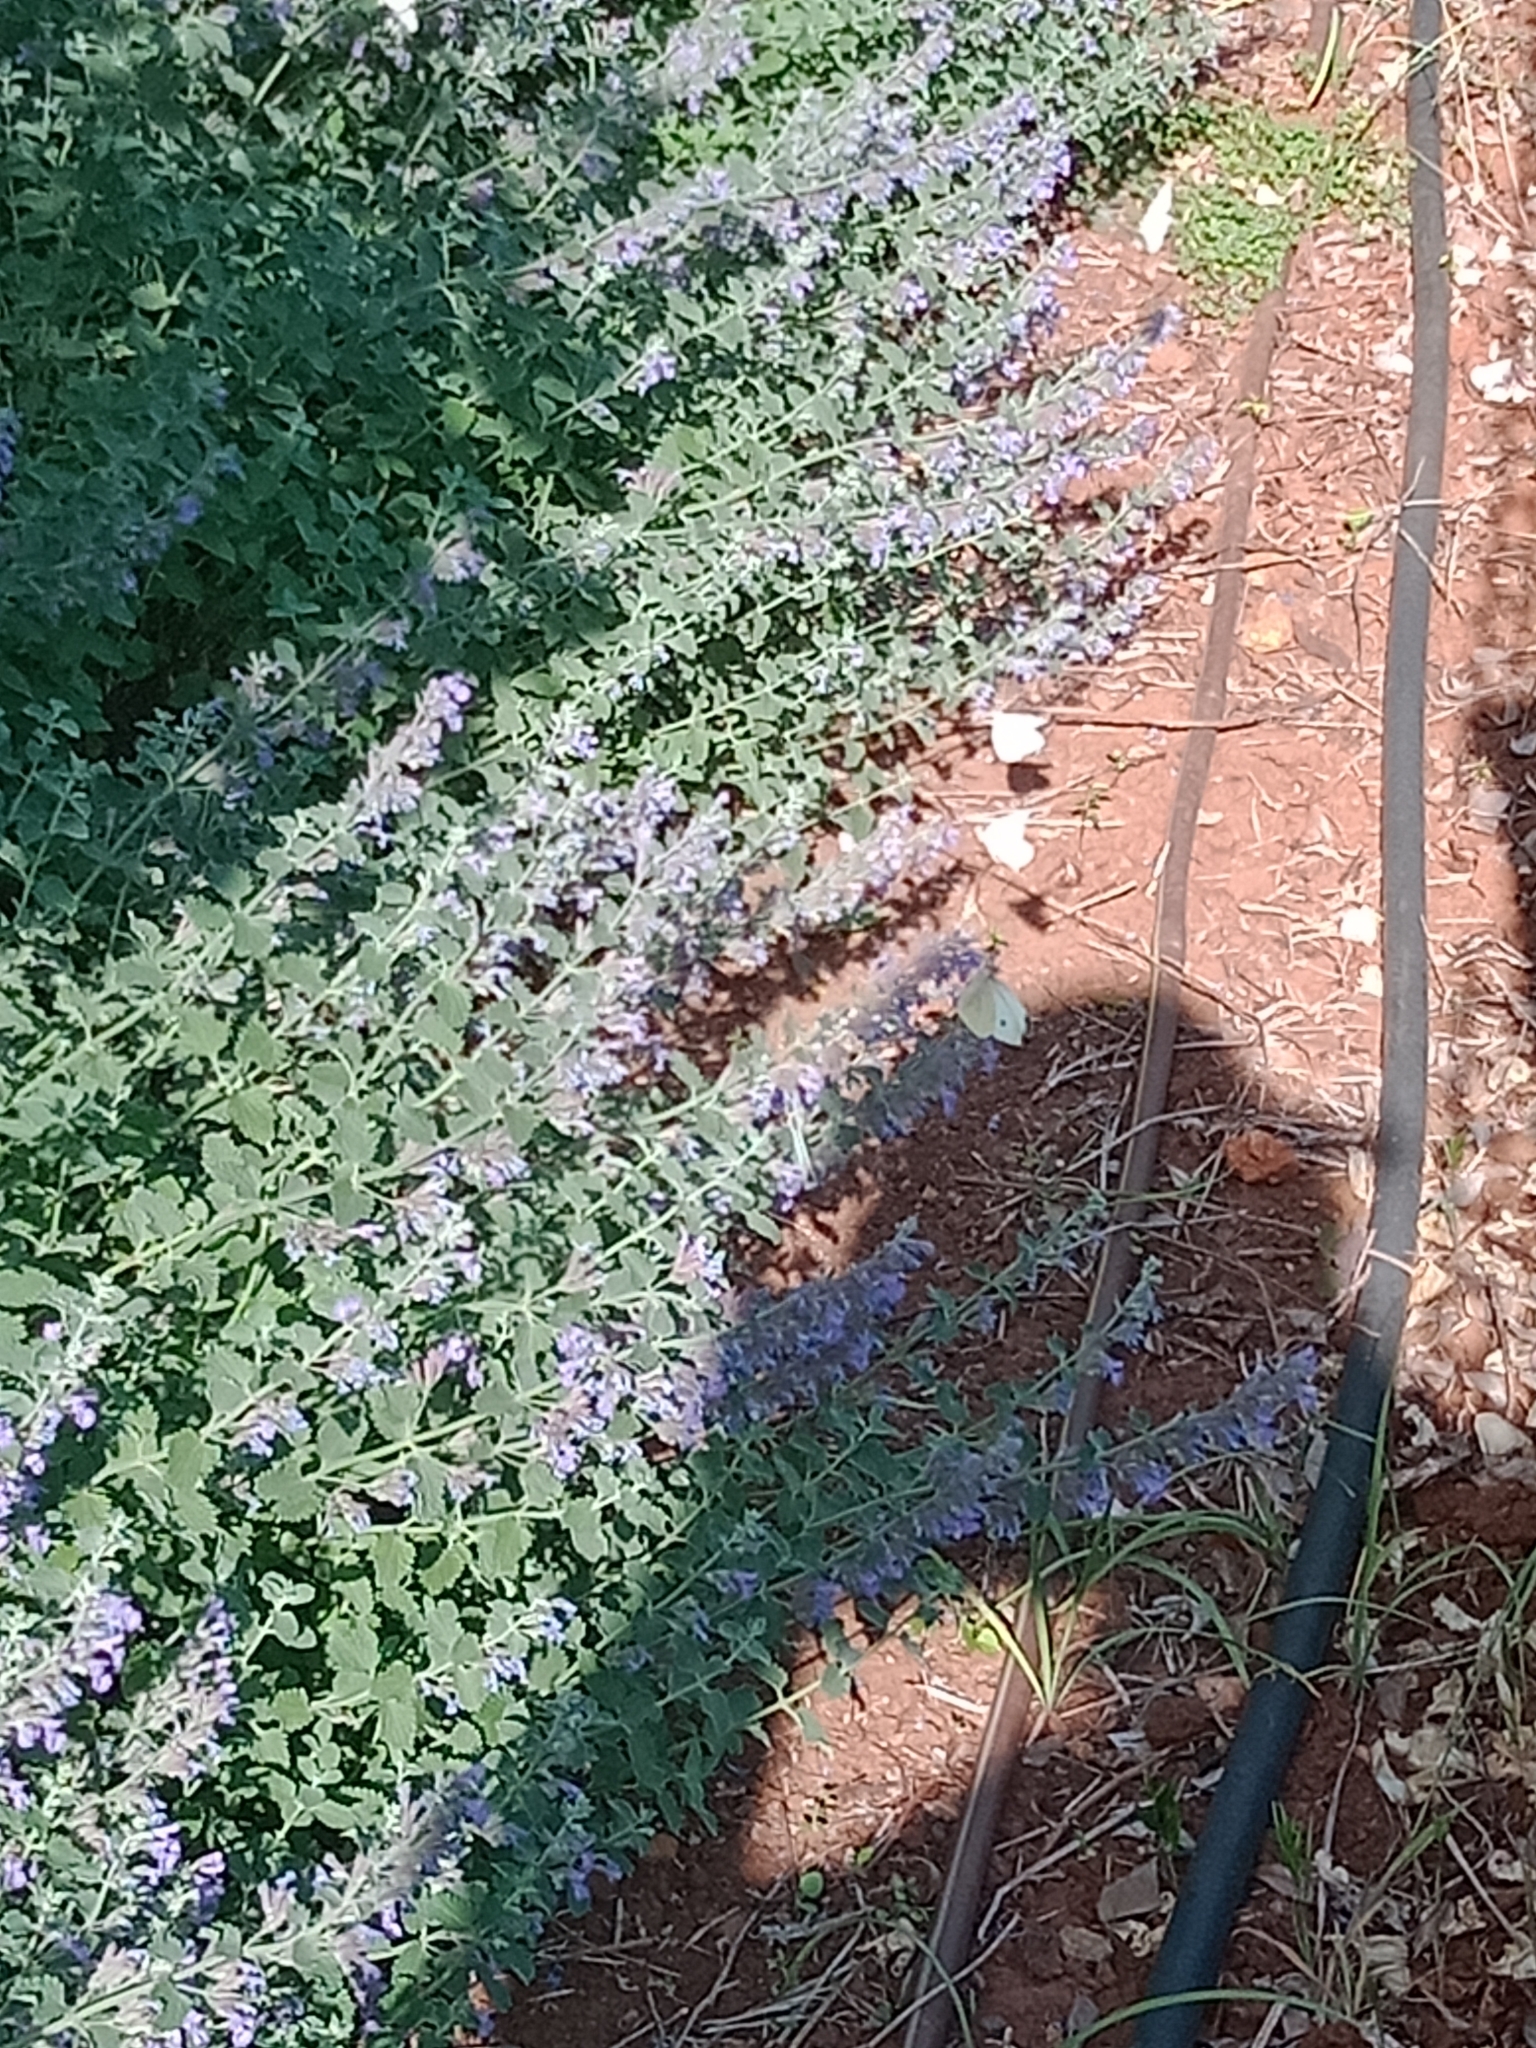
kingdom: Animalia
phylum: Arthropoda
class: Insecta
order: Lepidoptera
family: Pieridae
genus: Pieris
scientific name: Pieris rapae
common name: Small white
